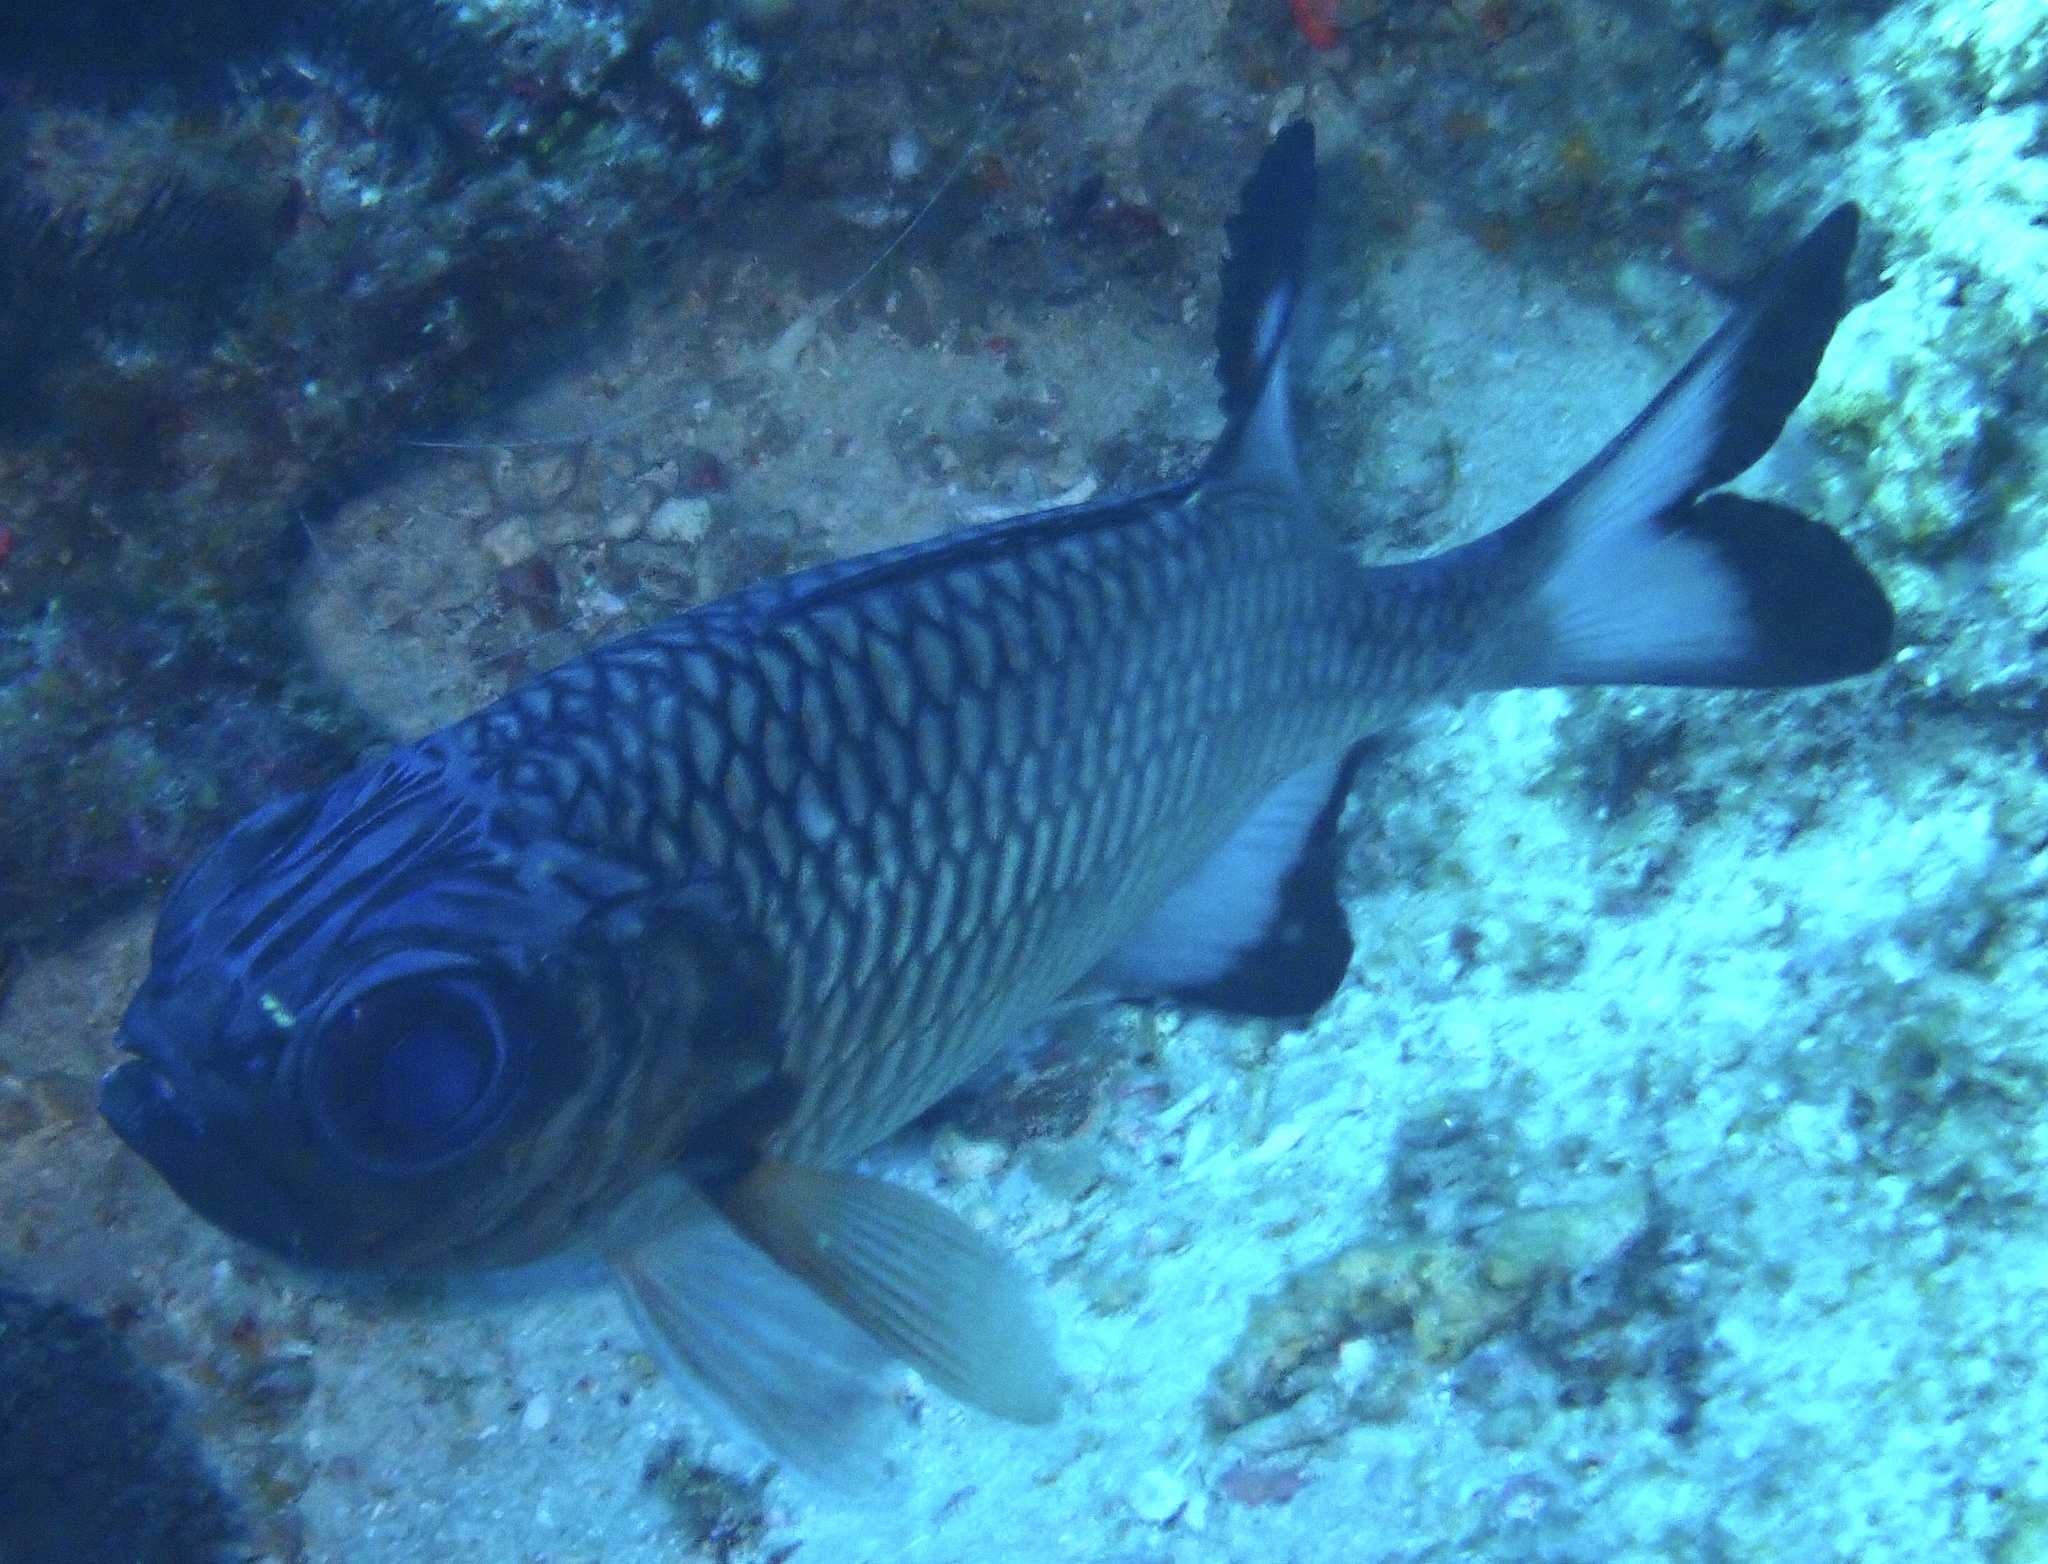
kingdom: Animalia
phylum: Chordata
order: Beryciformes
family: Holocentridae
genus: Myripristis
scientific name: Myripristis adusta
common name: Blackfin soldierfish
